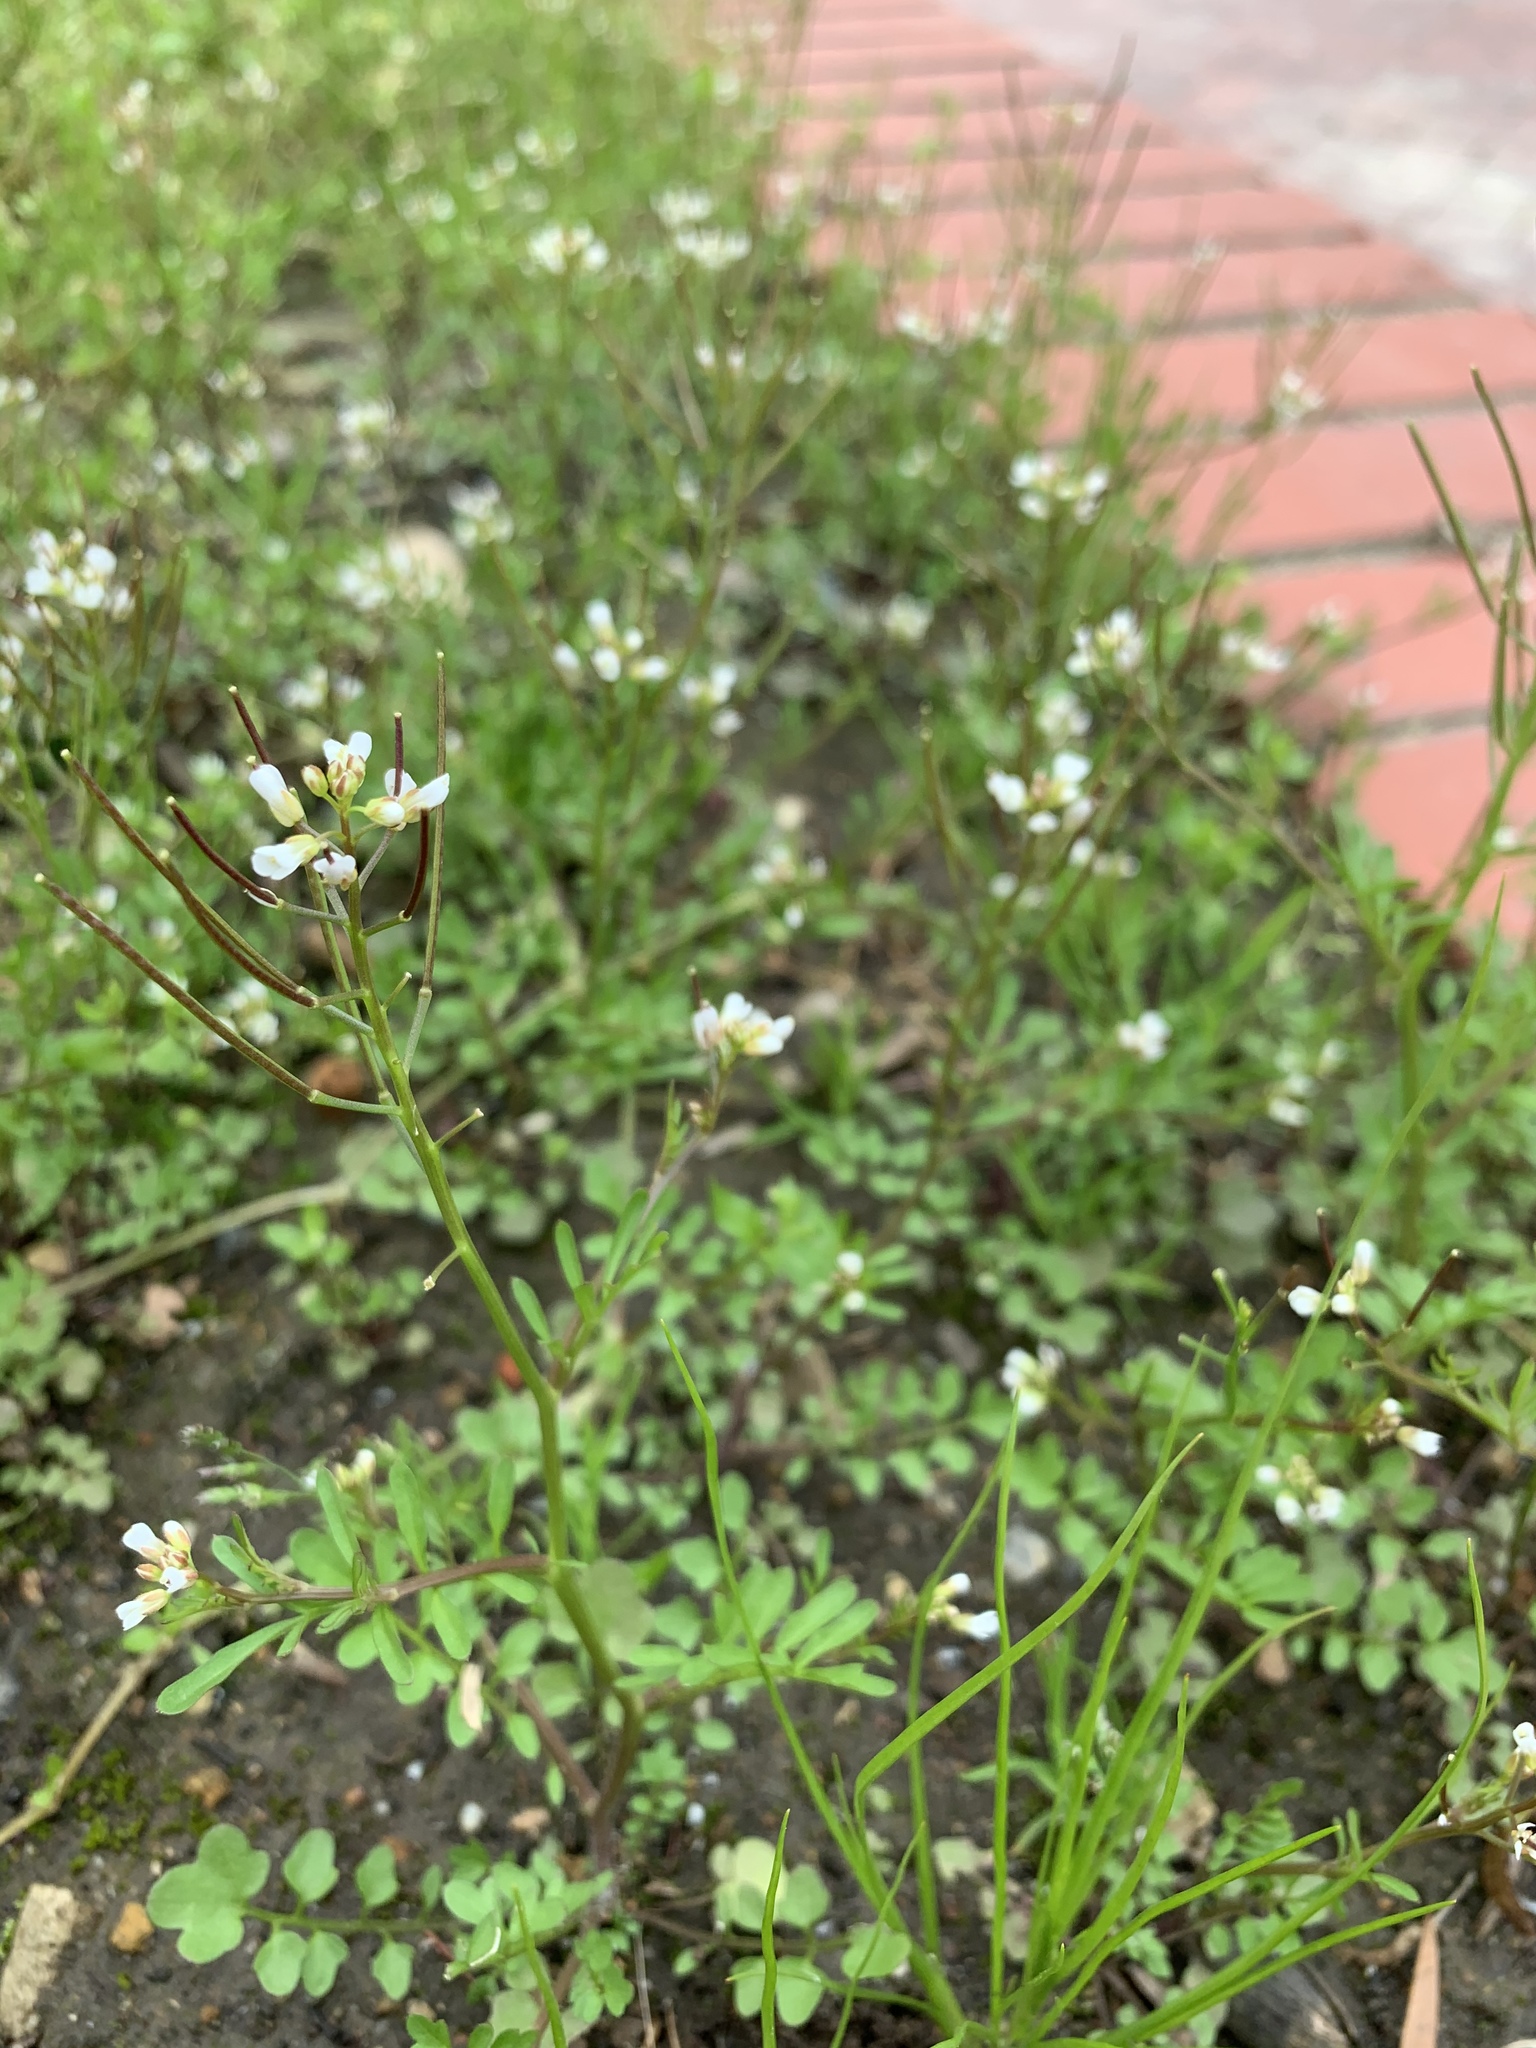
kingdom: Plantae
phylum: Tracheophyta
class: Magnoliopsida
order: Brassicales
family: Brassicaceae
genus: Cardamine
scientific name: Cardamine occulta
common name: Asian wavy bittercress
